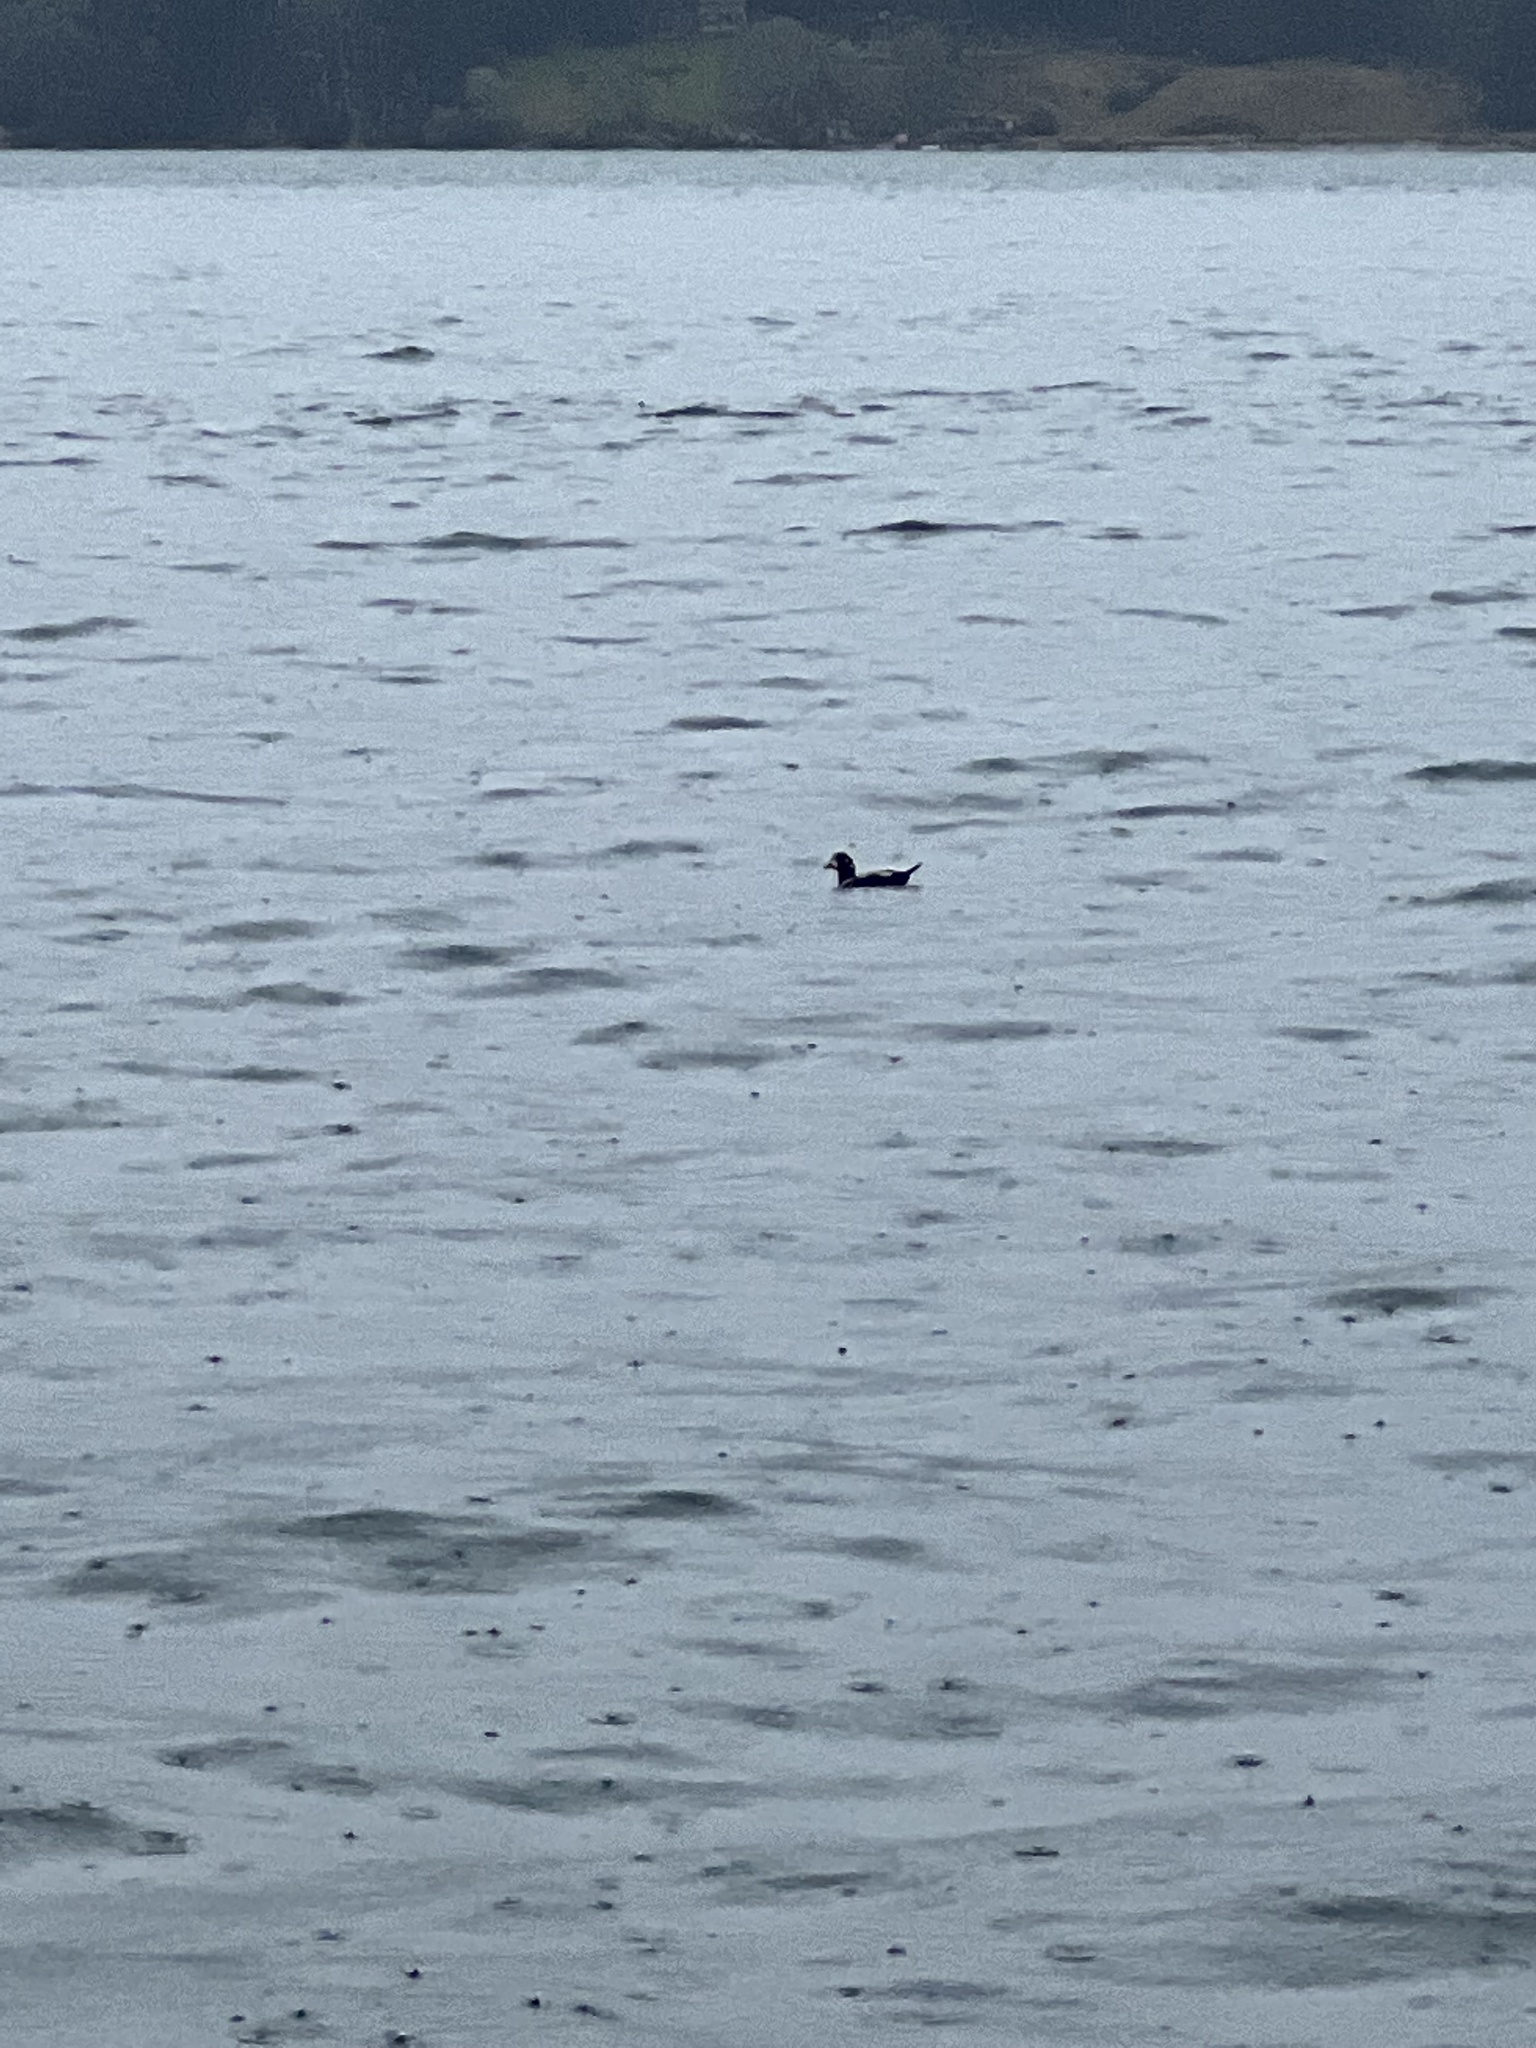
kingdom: Animalia
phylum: Chordata
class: Aves
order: Anseriformes
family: Anatidae
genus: Histrionicus
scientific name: Histrionicus histrionicus
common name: Harlequin duck
